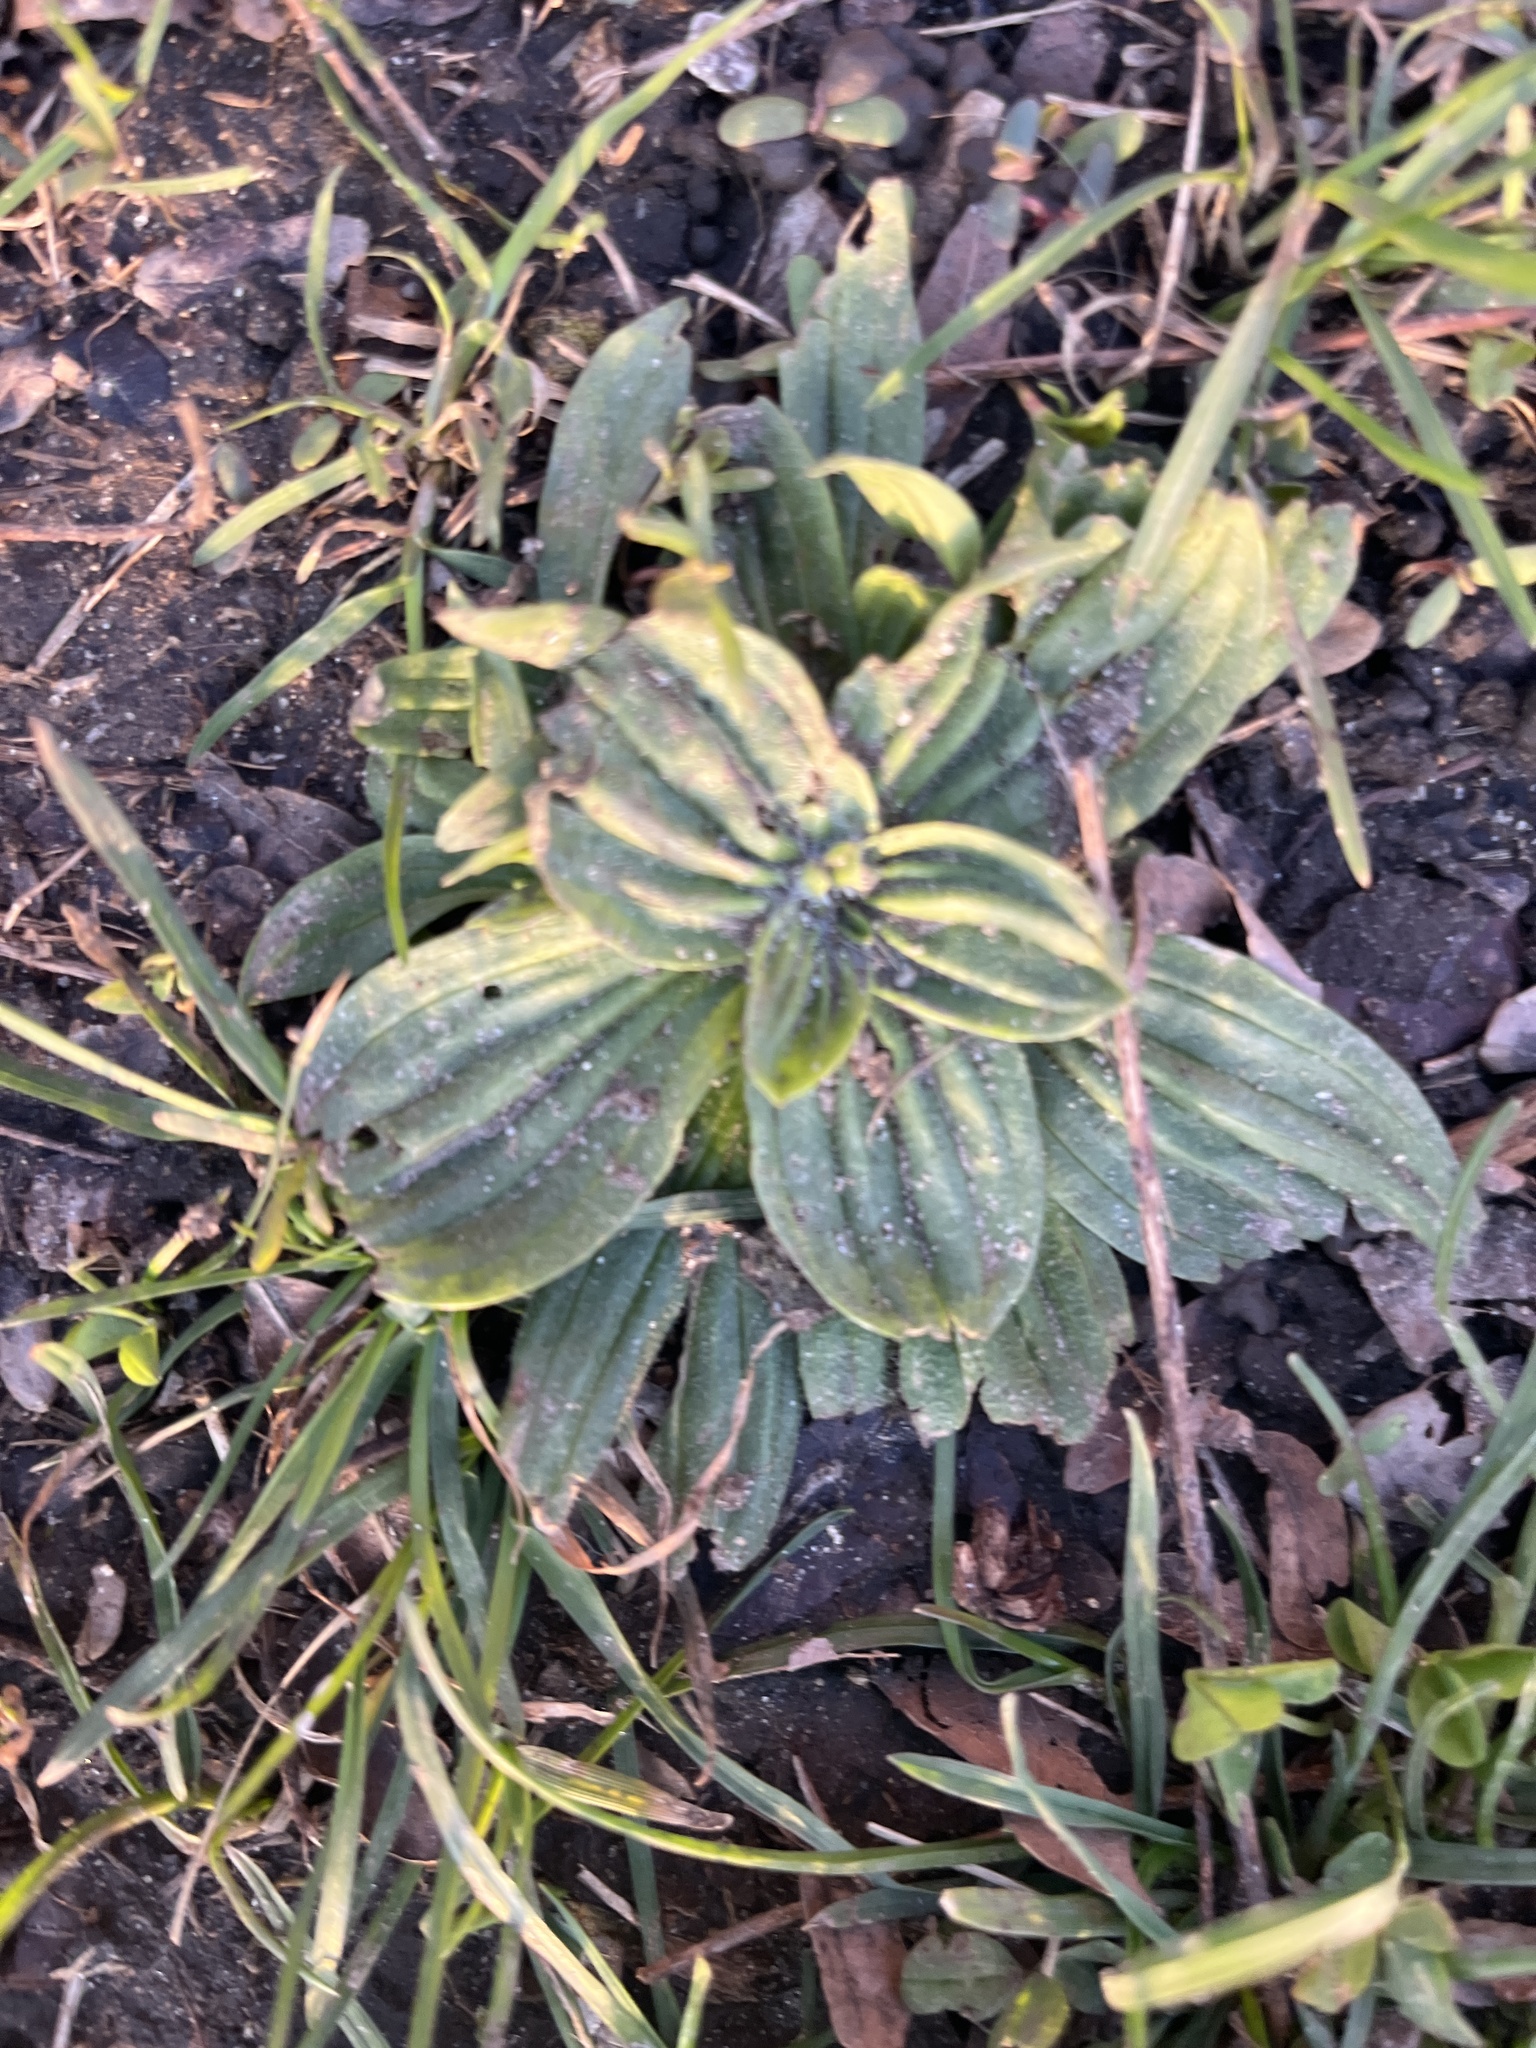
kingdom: Plantae
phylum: Tracheophyta
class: Magnoliopsida
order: Lamiales
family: Plantaginaceae
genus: Plantago
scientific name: Plantago lanceolata
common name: Ribwort plantain
